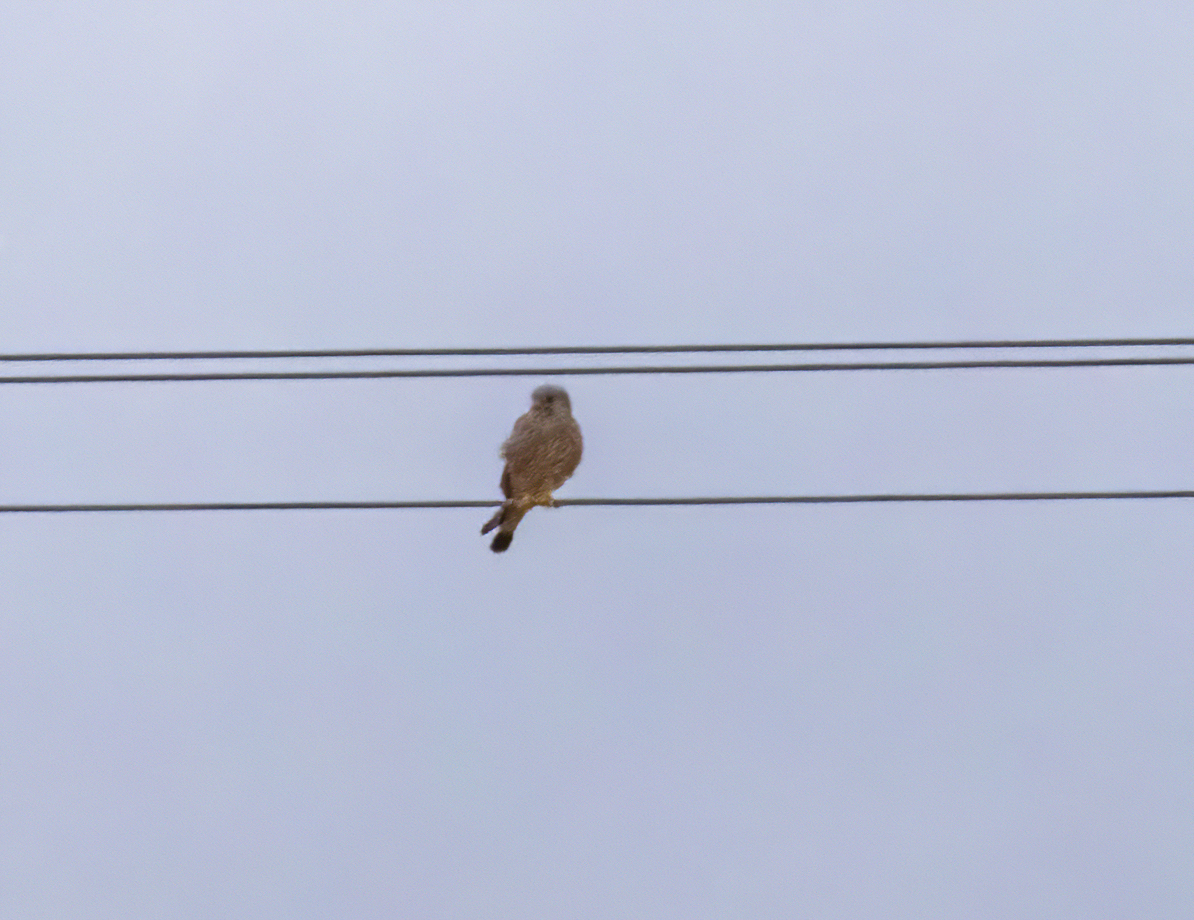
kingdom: Animalia
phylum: Chordata
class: Aves
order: Falconiformes
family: Falconidae
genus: Falco
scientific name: Falco tinnunculus
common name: Common kestrel
